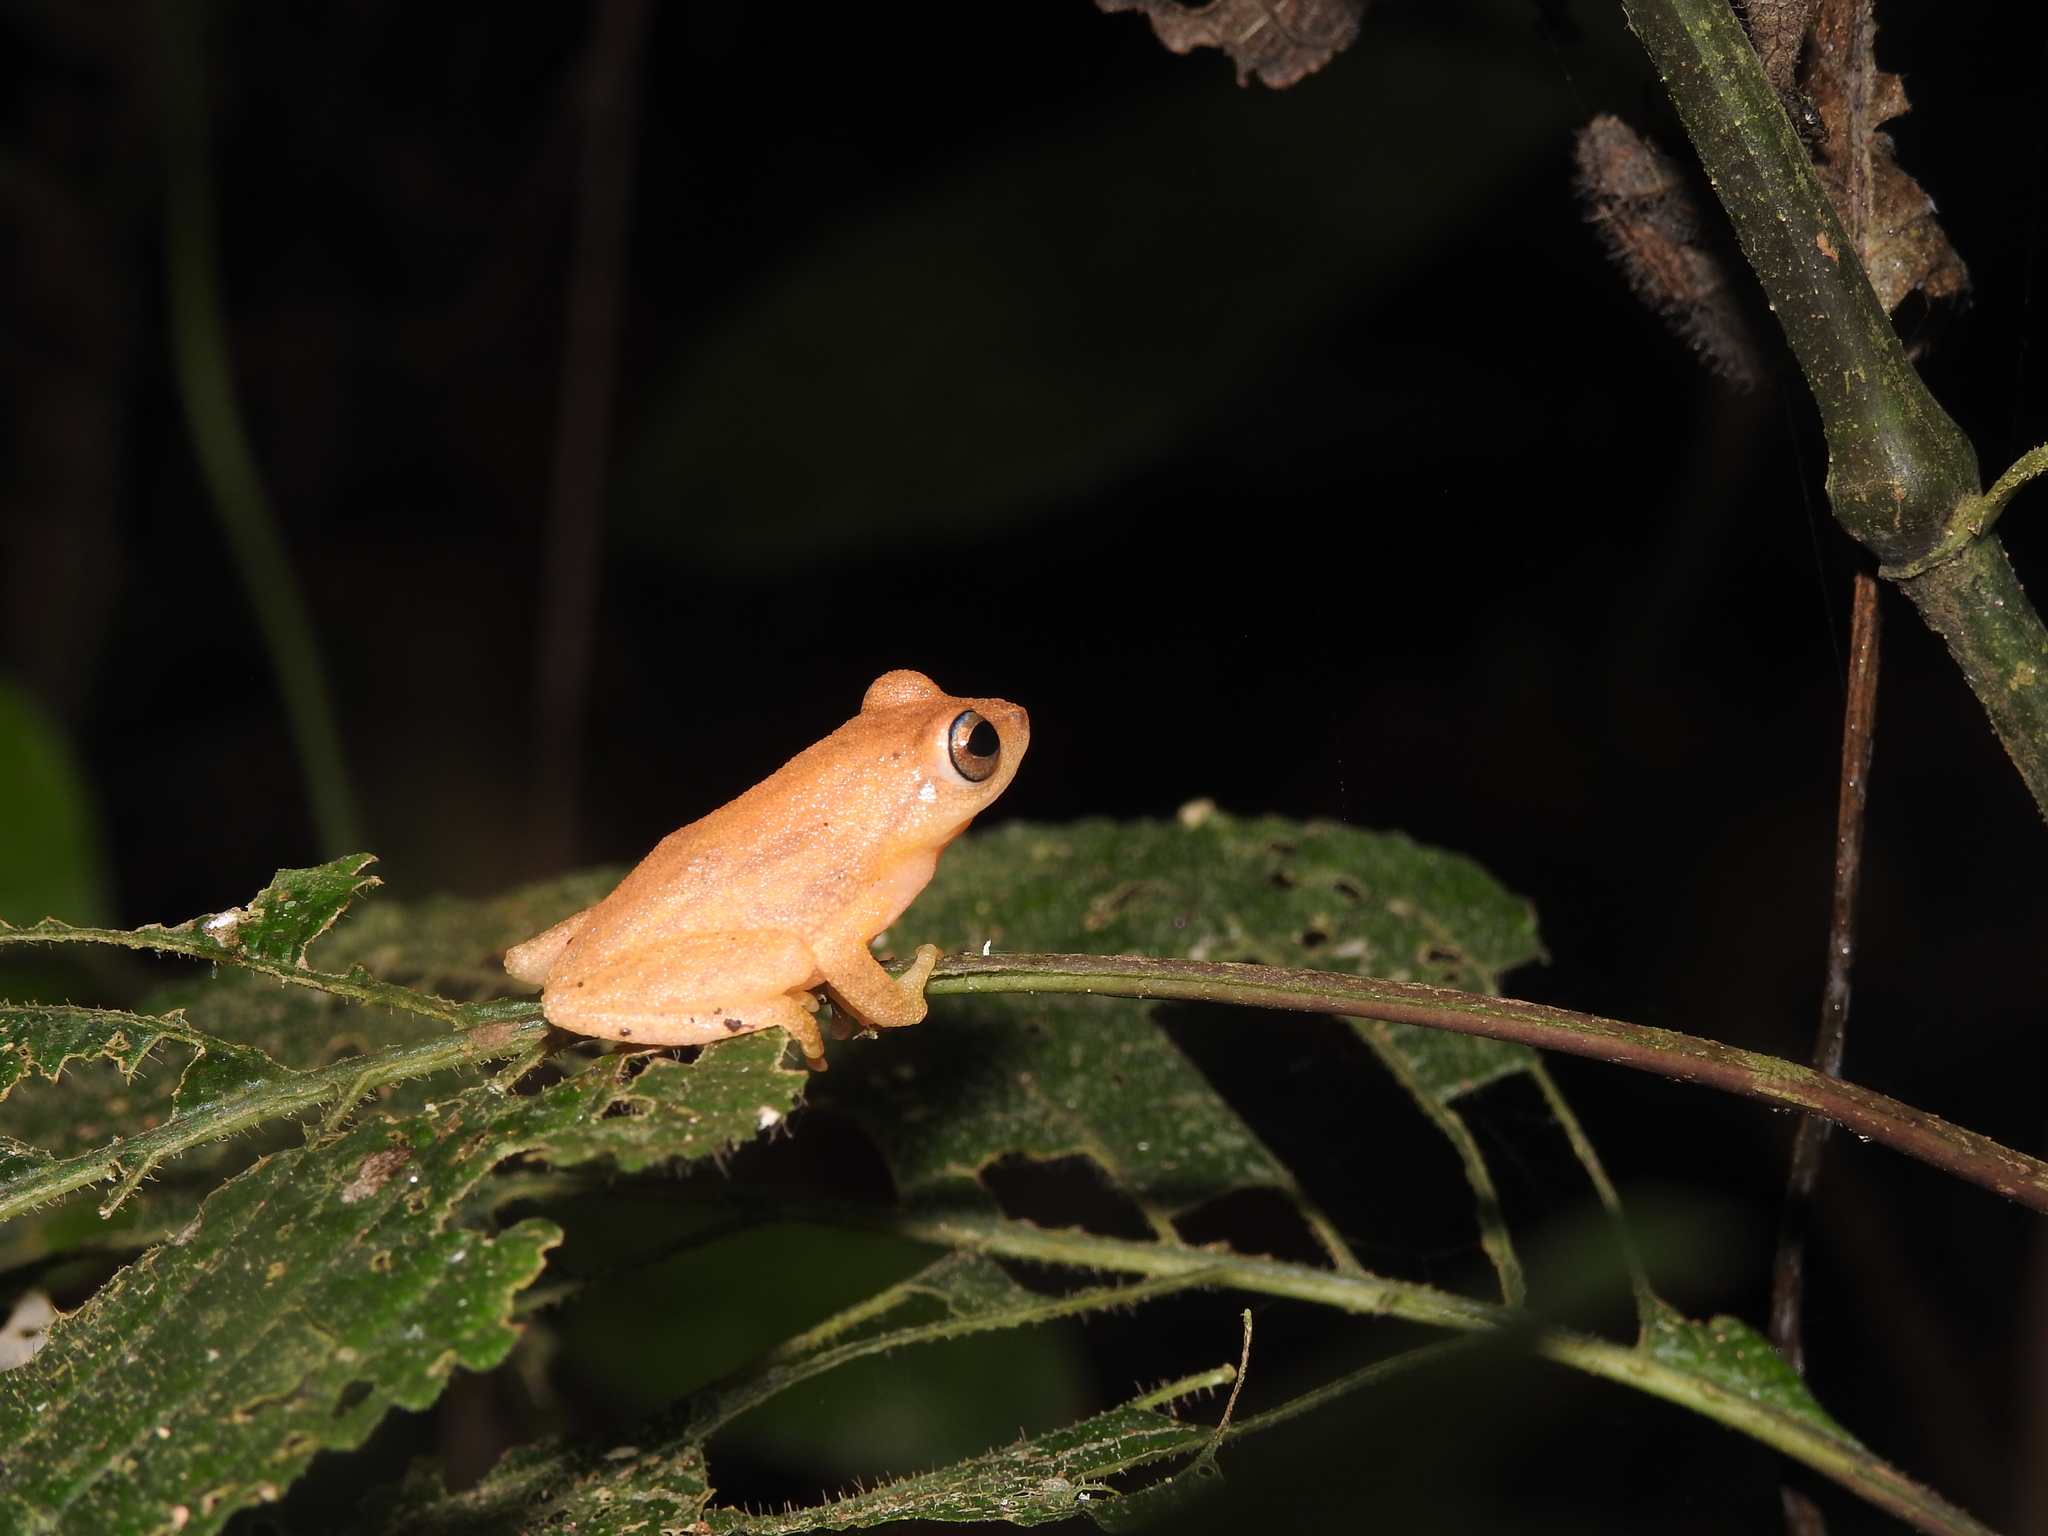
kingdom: Animalia
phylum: Chordata
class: Amphibia
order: Anura
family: Rhacophoridae
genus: Raorchestes
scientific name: Raorchestes luteolus
